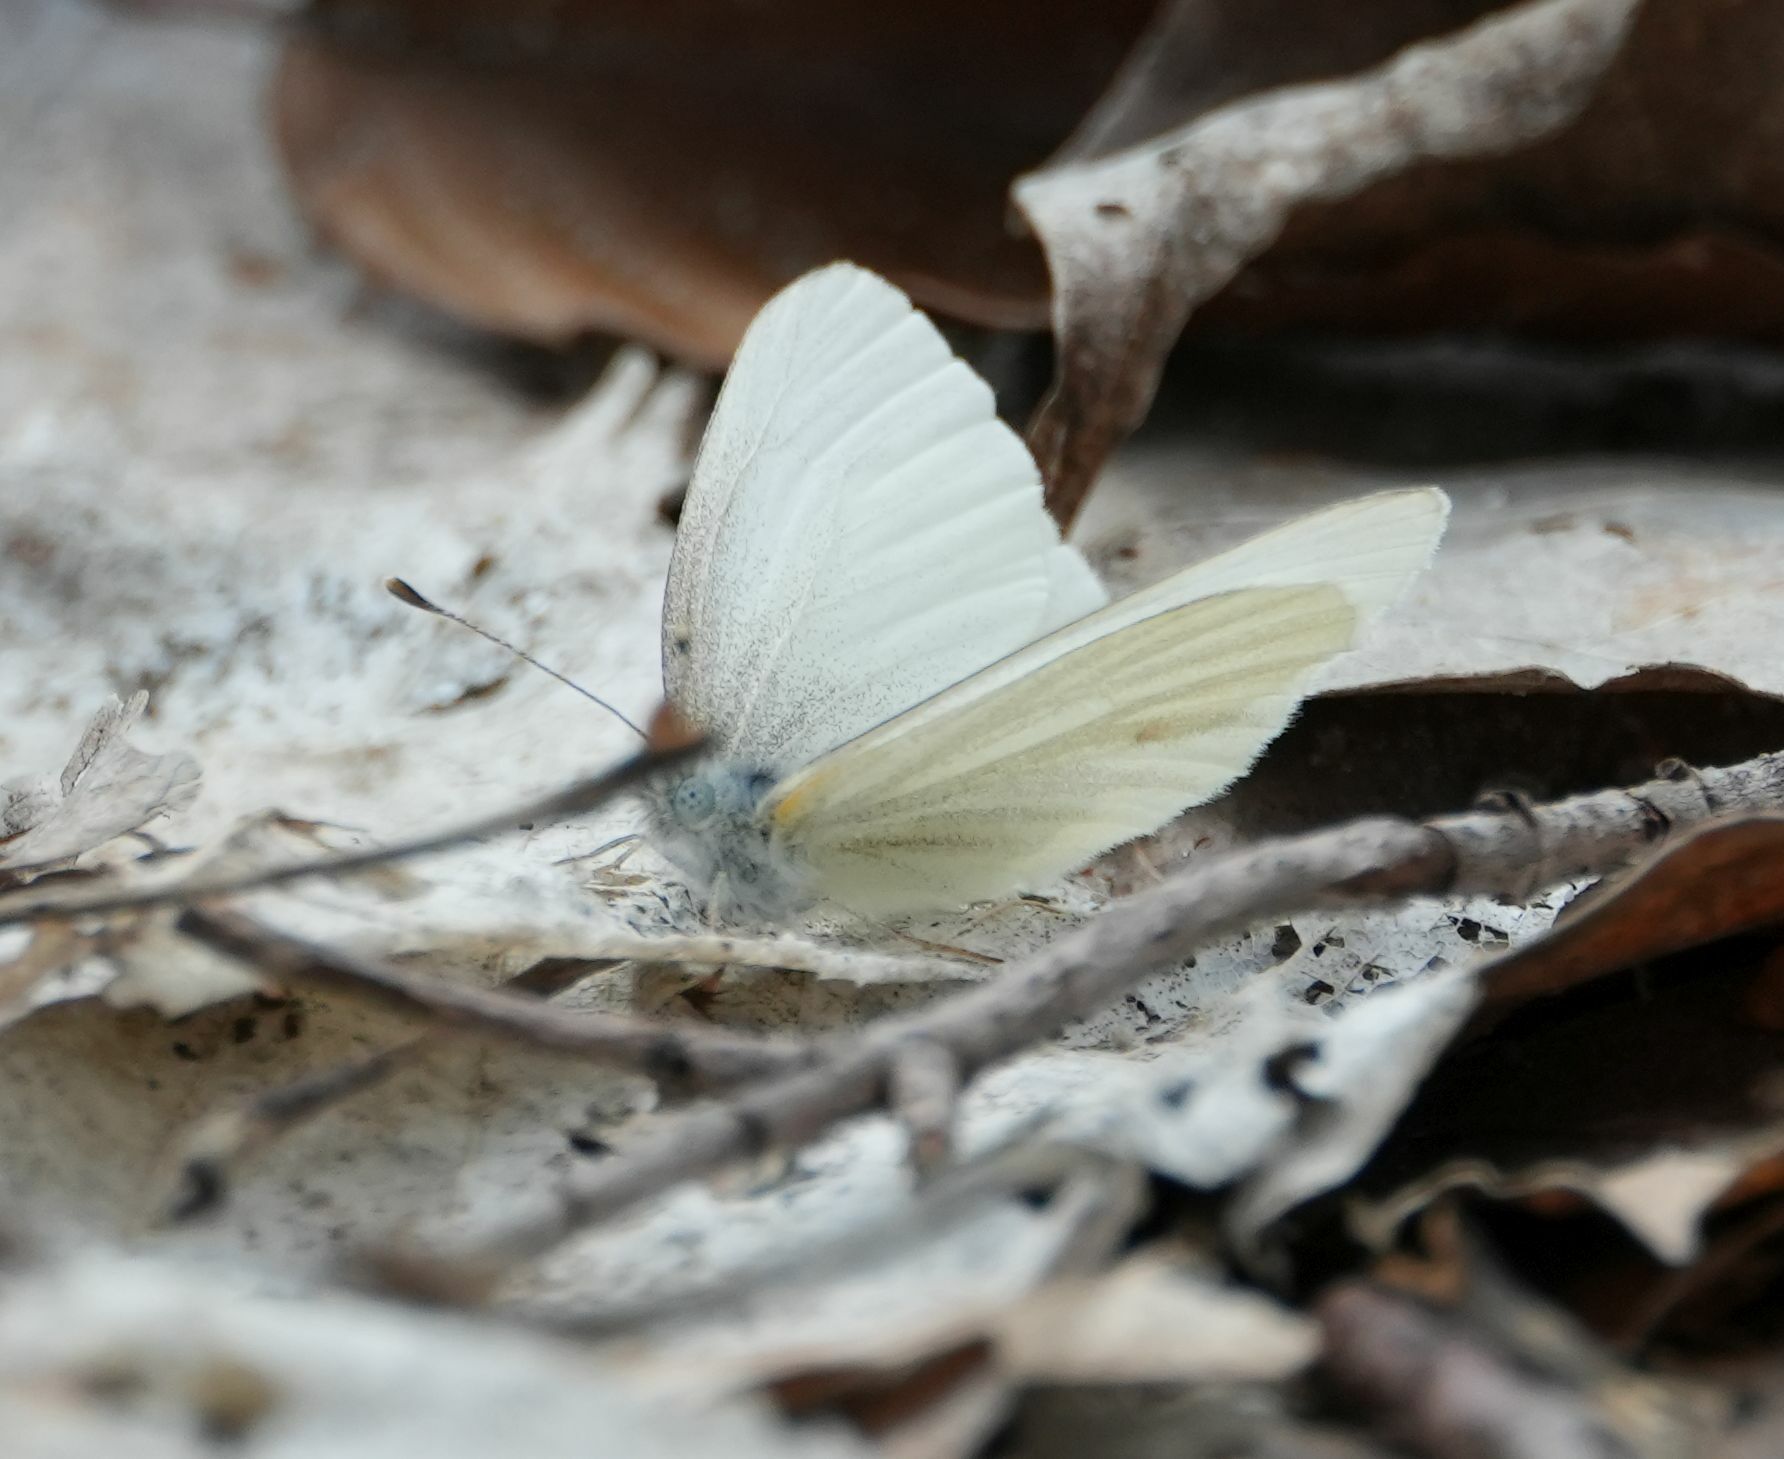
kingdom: Animalia
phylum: Arthropoda
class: Insecta
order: Lepidoptera
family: Pieridae
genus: Pieris
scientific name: Pieris virginiensis
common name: West virginia white
